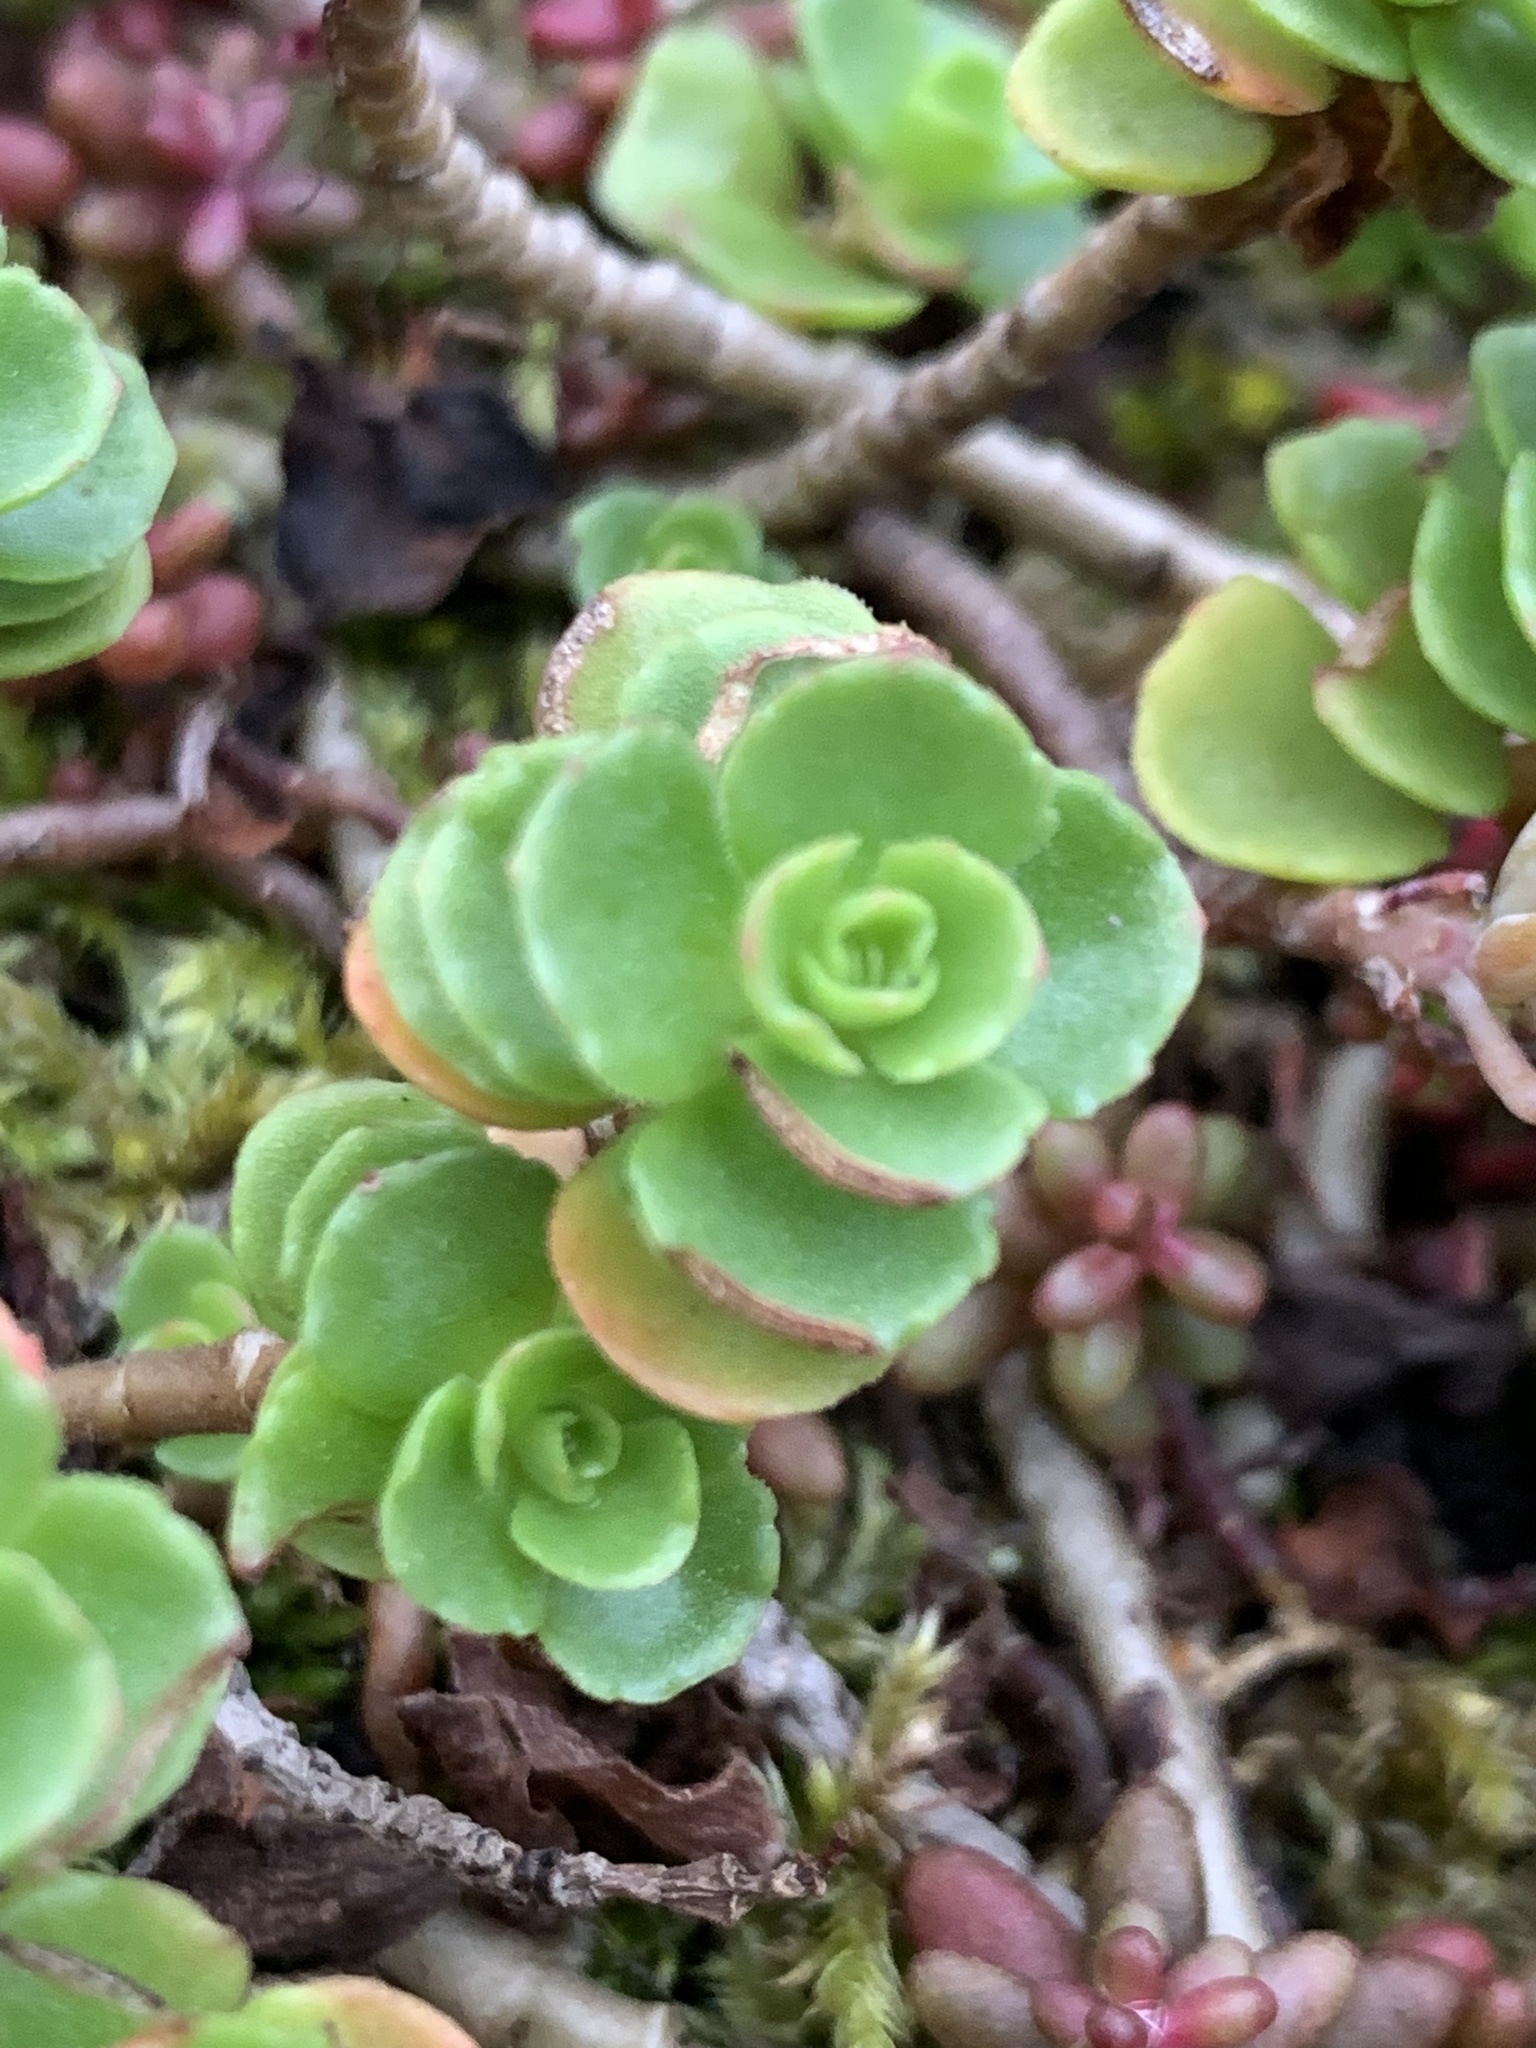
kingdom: Plantae
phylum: Tracheophyta
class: Magnoliopsida
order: Saxifragales
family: Crassulaceae
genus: Phedimus
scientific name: Phedimus spurius
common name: Caucasian stonecrop
